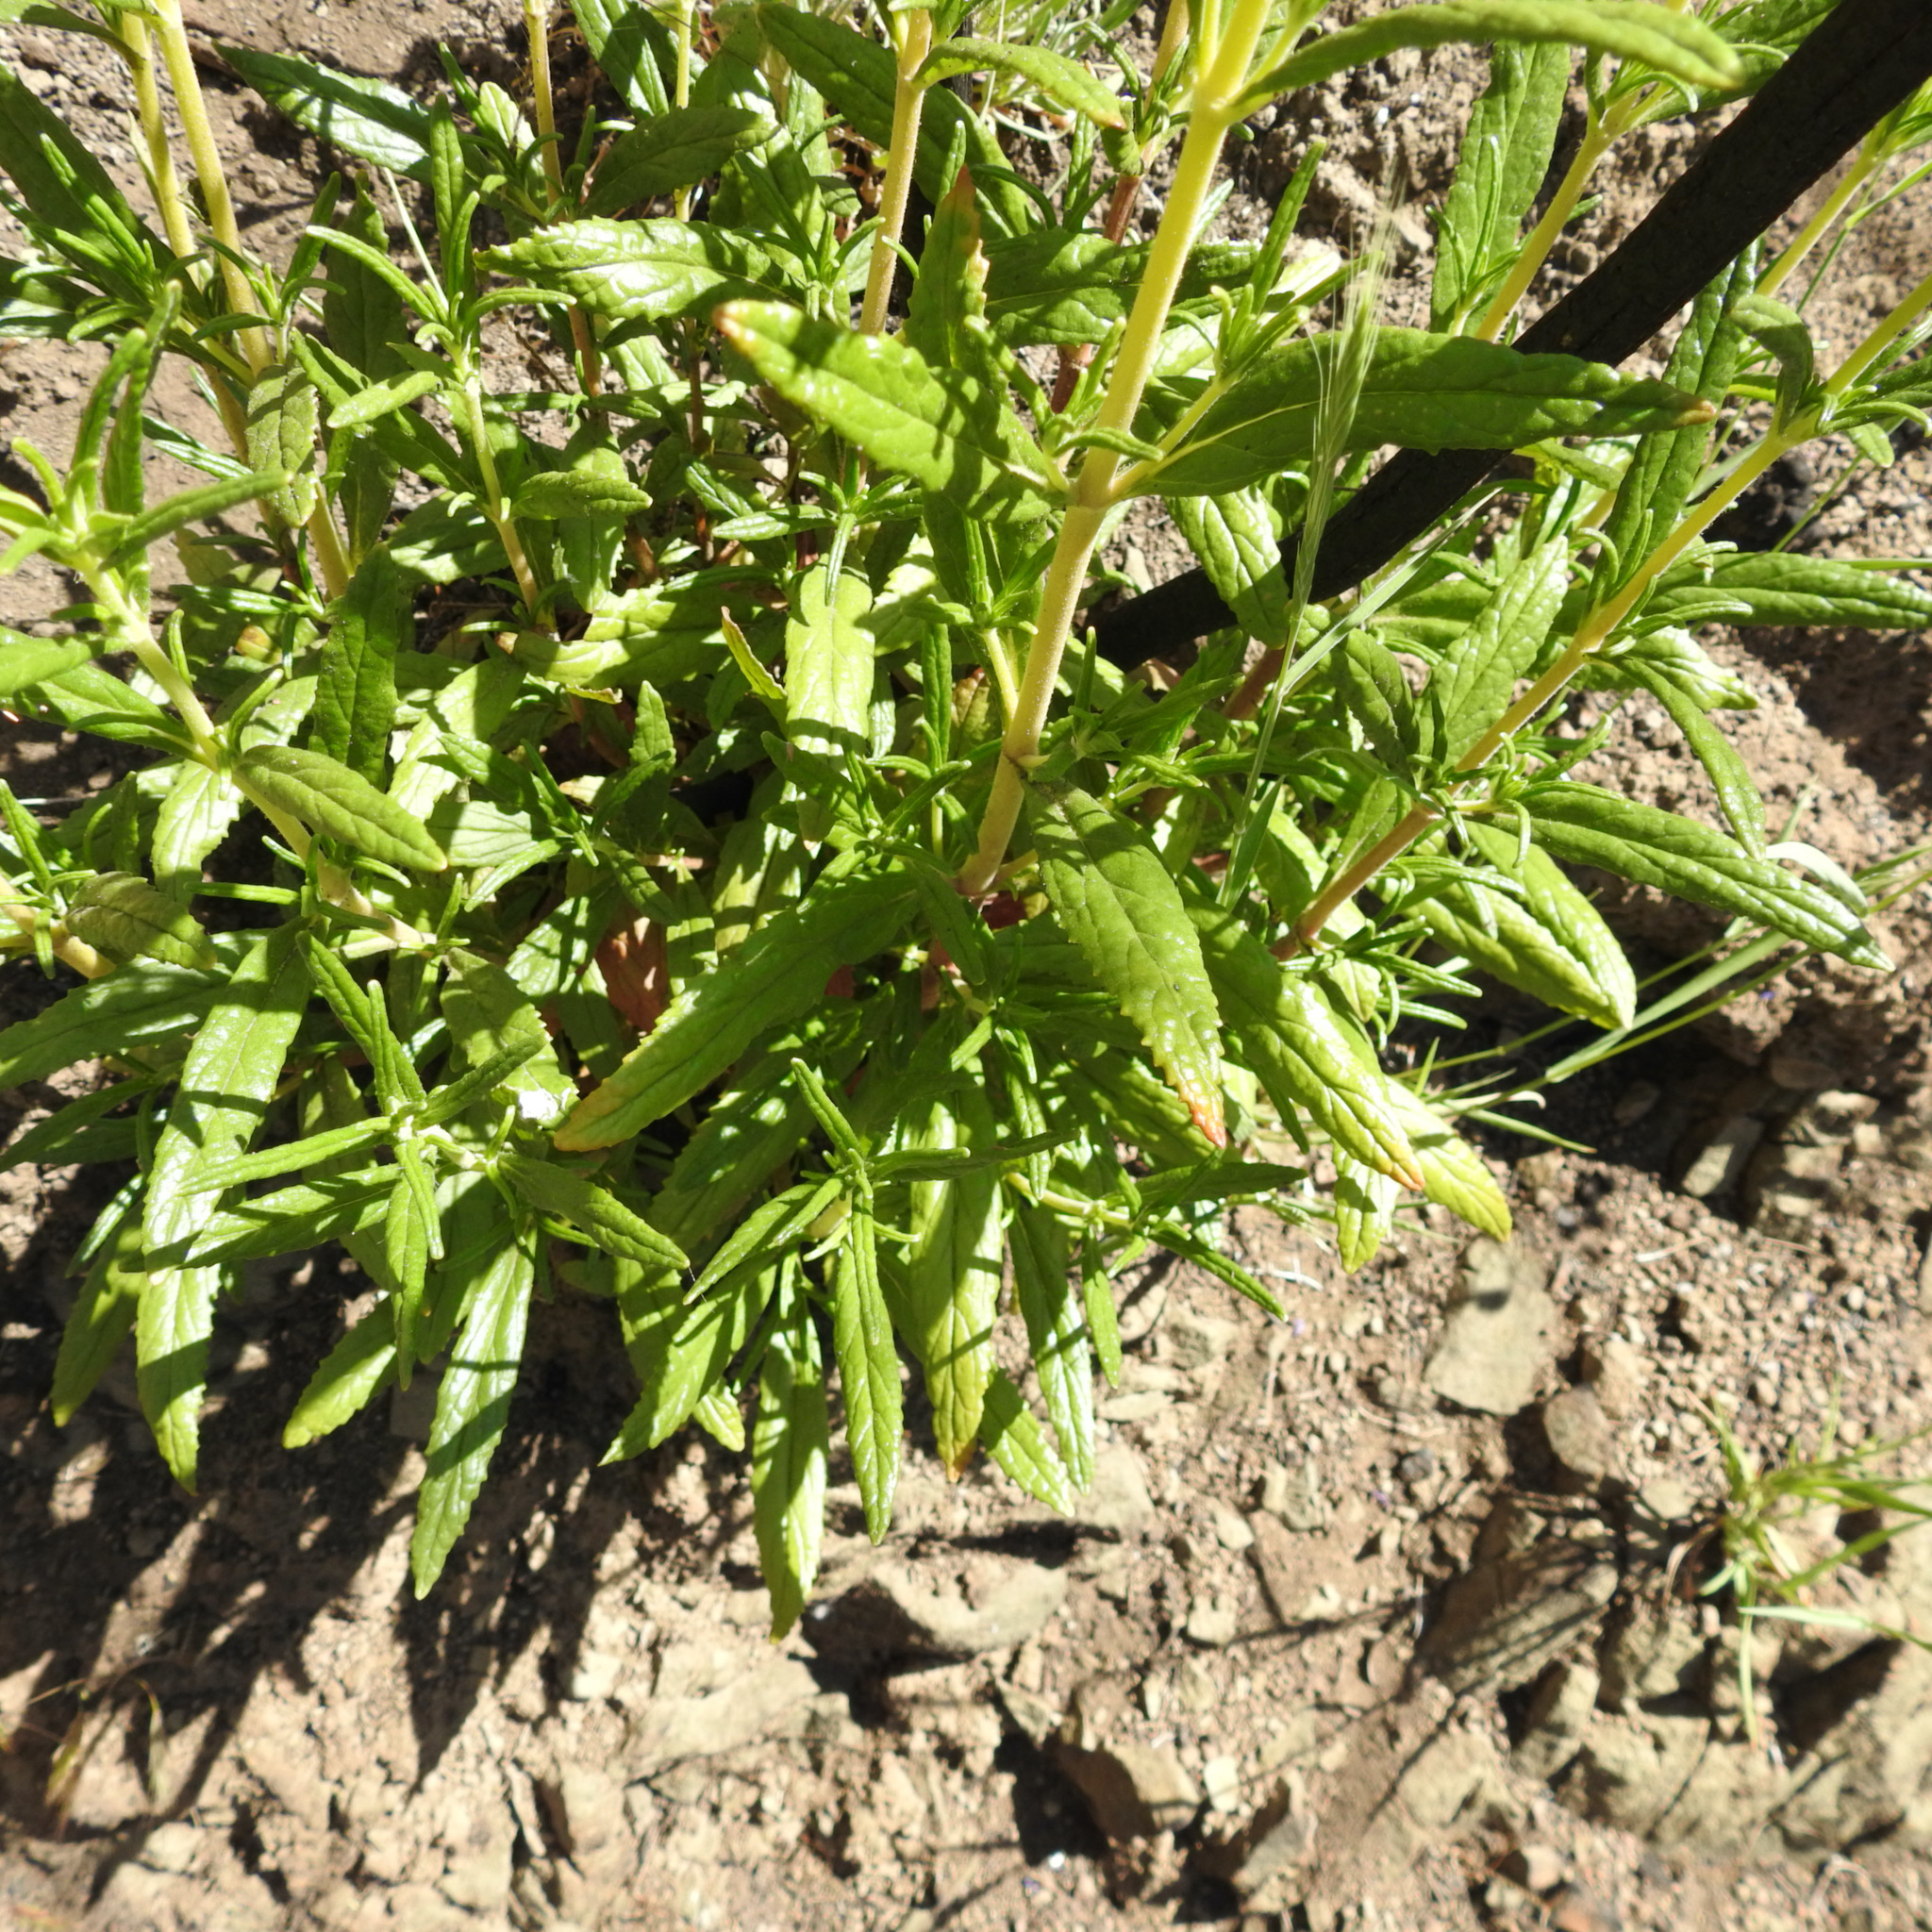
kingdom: Plantae
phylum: Tracheophyta
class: Magnoliopsida
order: Lamiales
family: Phrymaceae
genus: Diplacus
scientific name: Diplacus aurantiacus
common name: Bush monkey-flower
